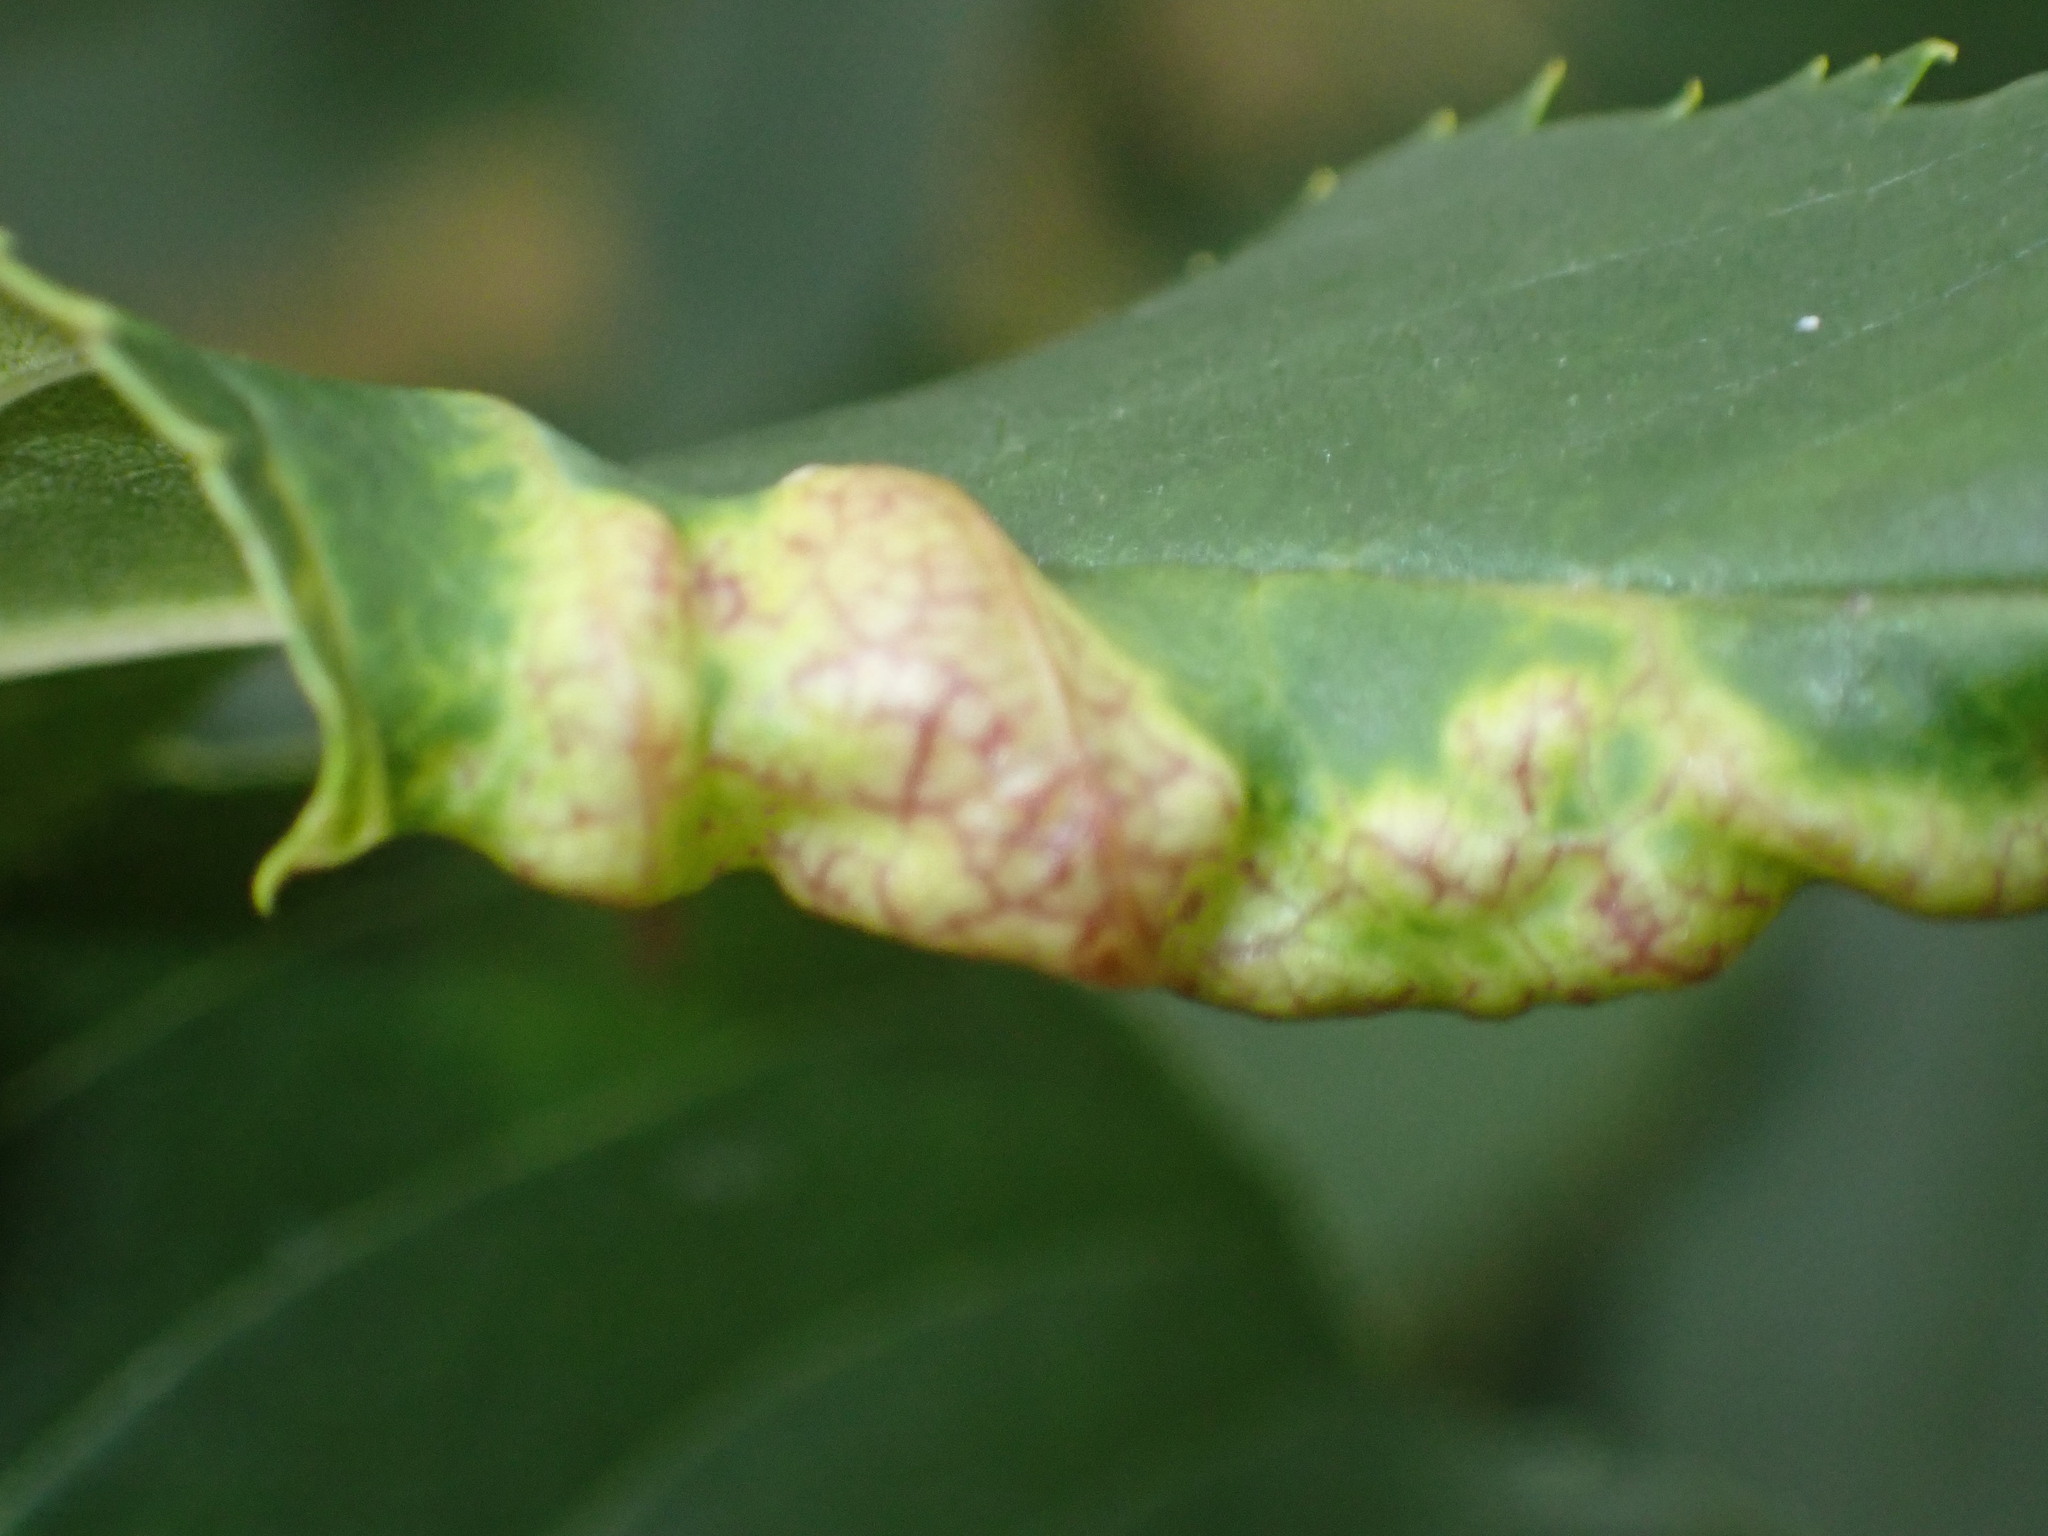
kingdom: Animalia
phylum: Arthropoda
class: Insecta
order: Hemiptera
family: Liviidae
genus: Psyllopsis
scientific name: Psyllopsis fraxini
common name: Jumping plant louse
